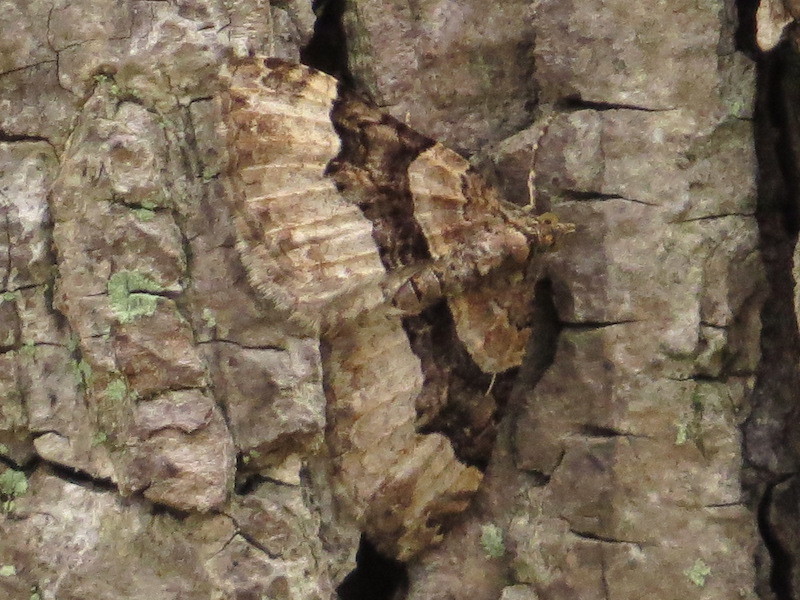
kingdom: Animalia
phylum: Arthropoda
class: Insecta
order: Lepidoptera
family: Geometridae
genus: Xanthorhoe
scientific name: Xanthorhoe lacustrata
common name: Toothed brown carpet
